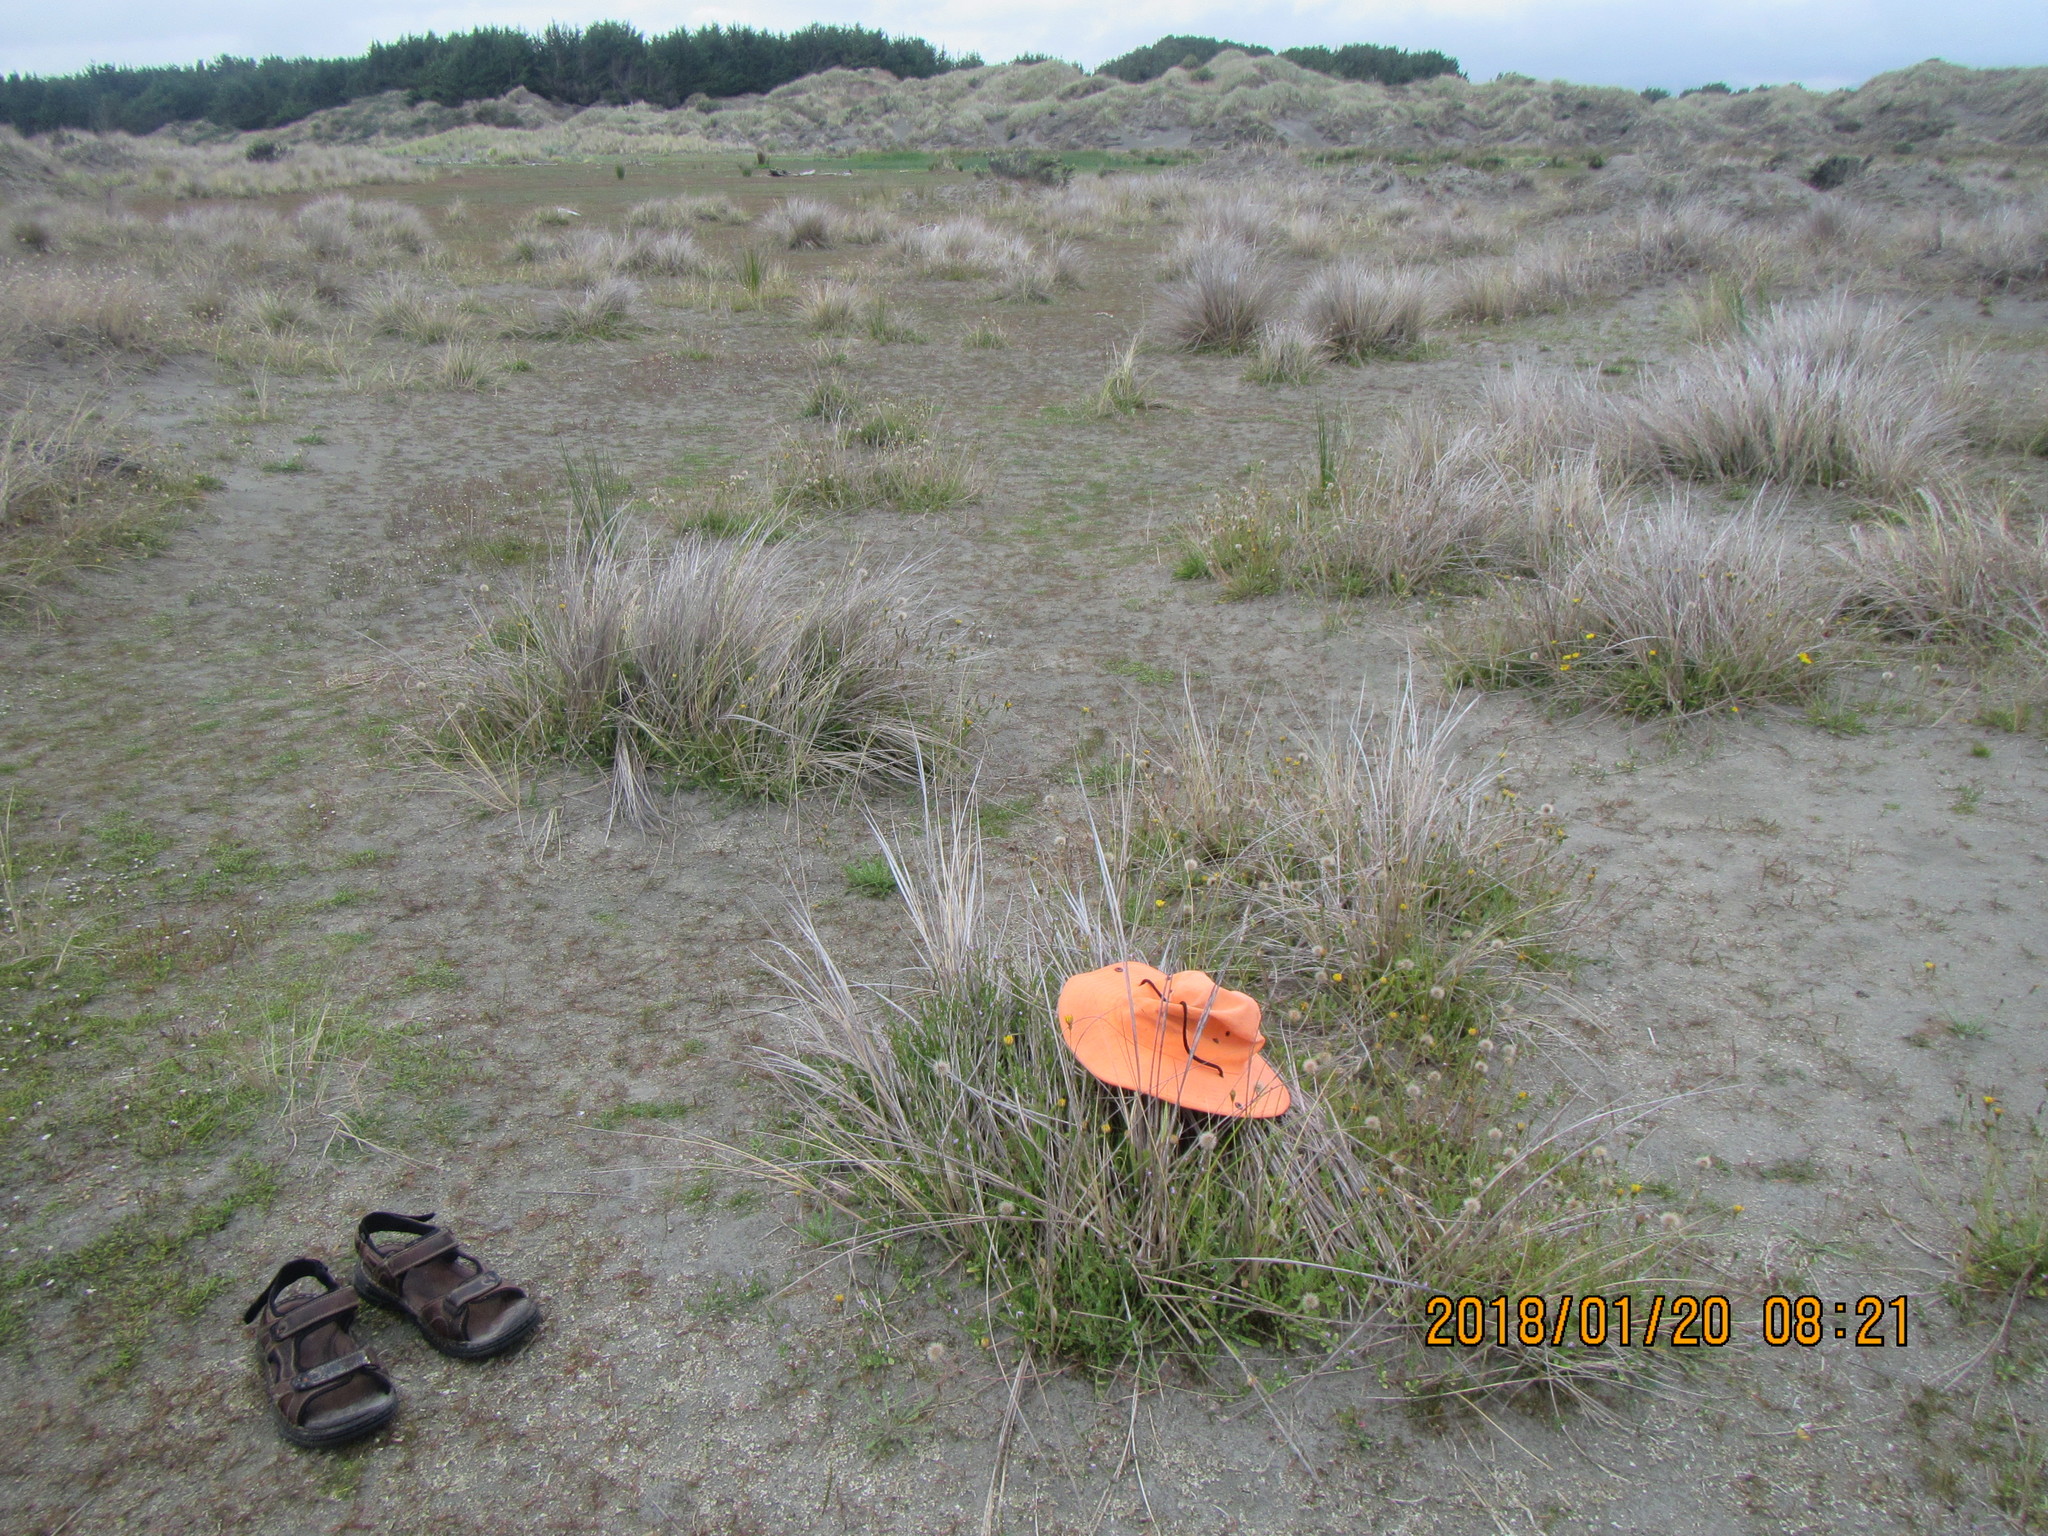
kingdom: Plantae
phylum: Tracheophyta
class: Magnoliopsida
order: Asterales
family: Campanulaceae
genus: Lobelia
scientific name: Lobelia anceps
